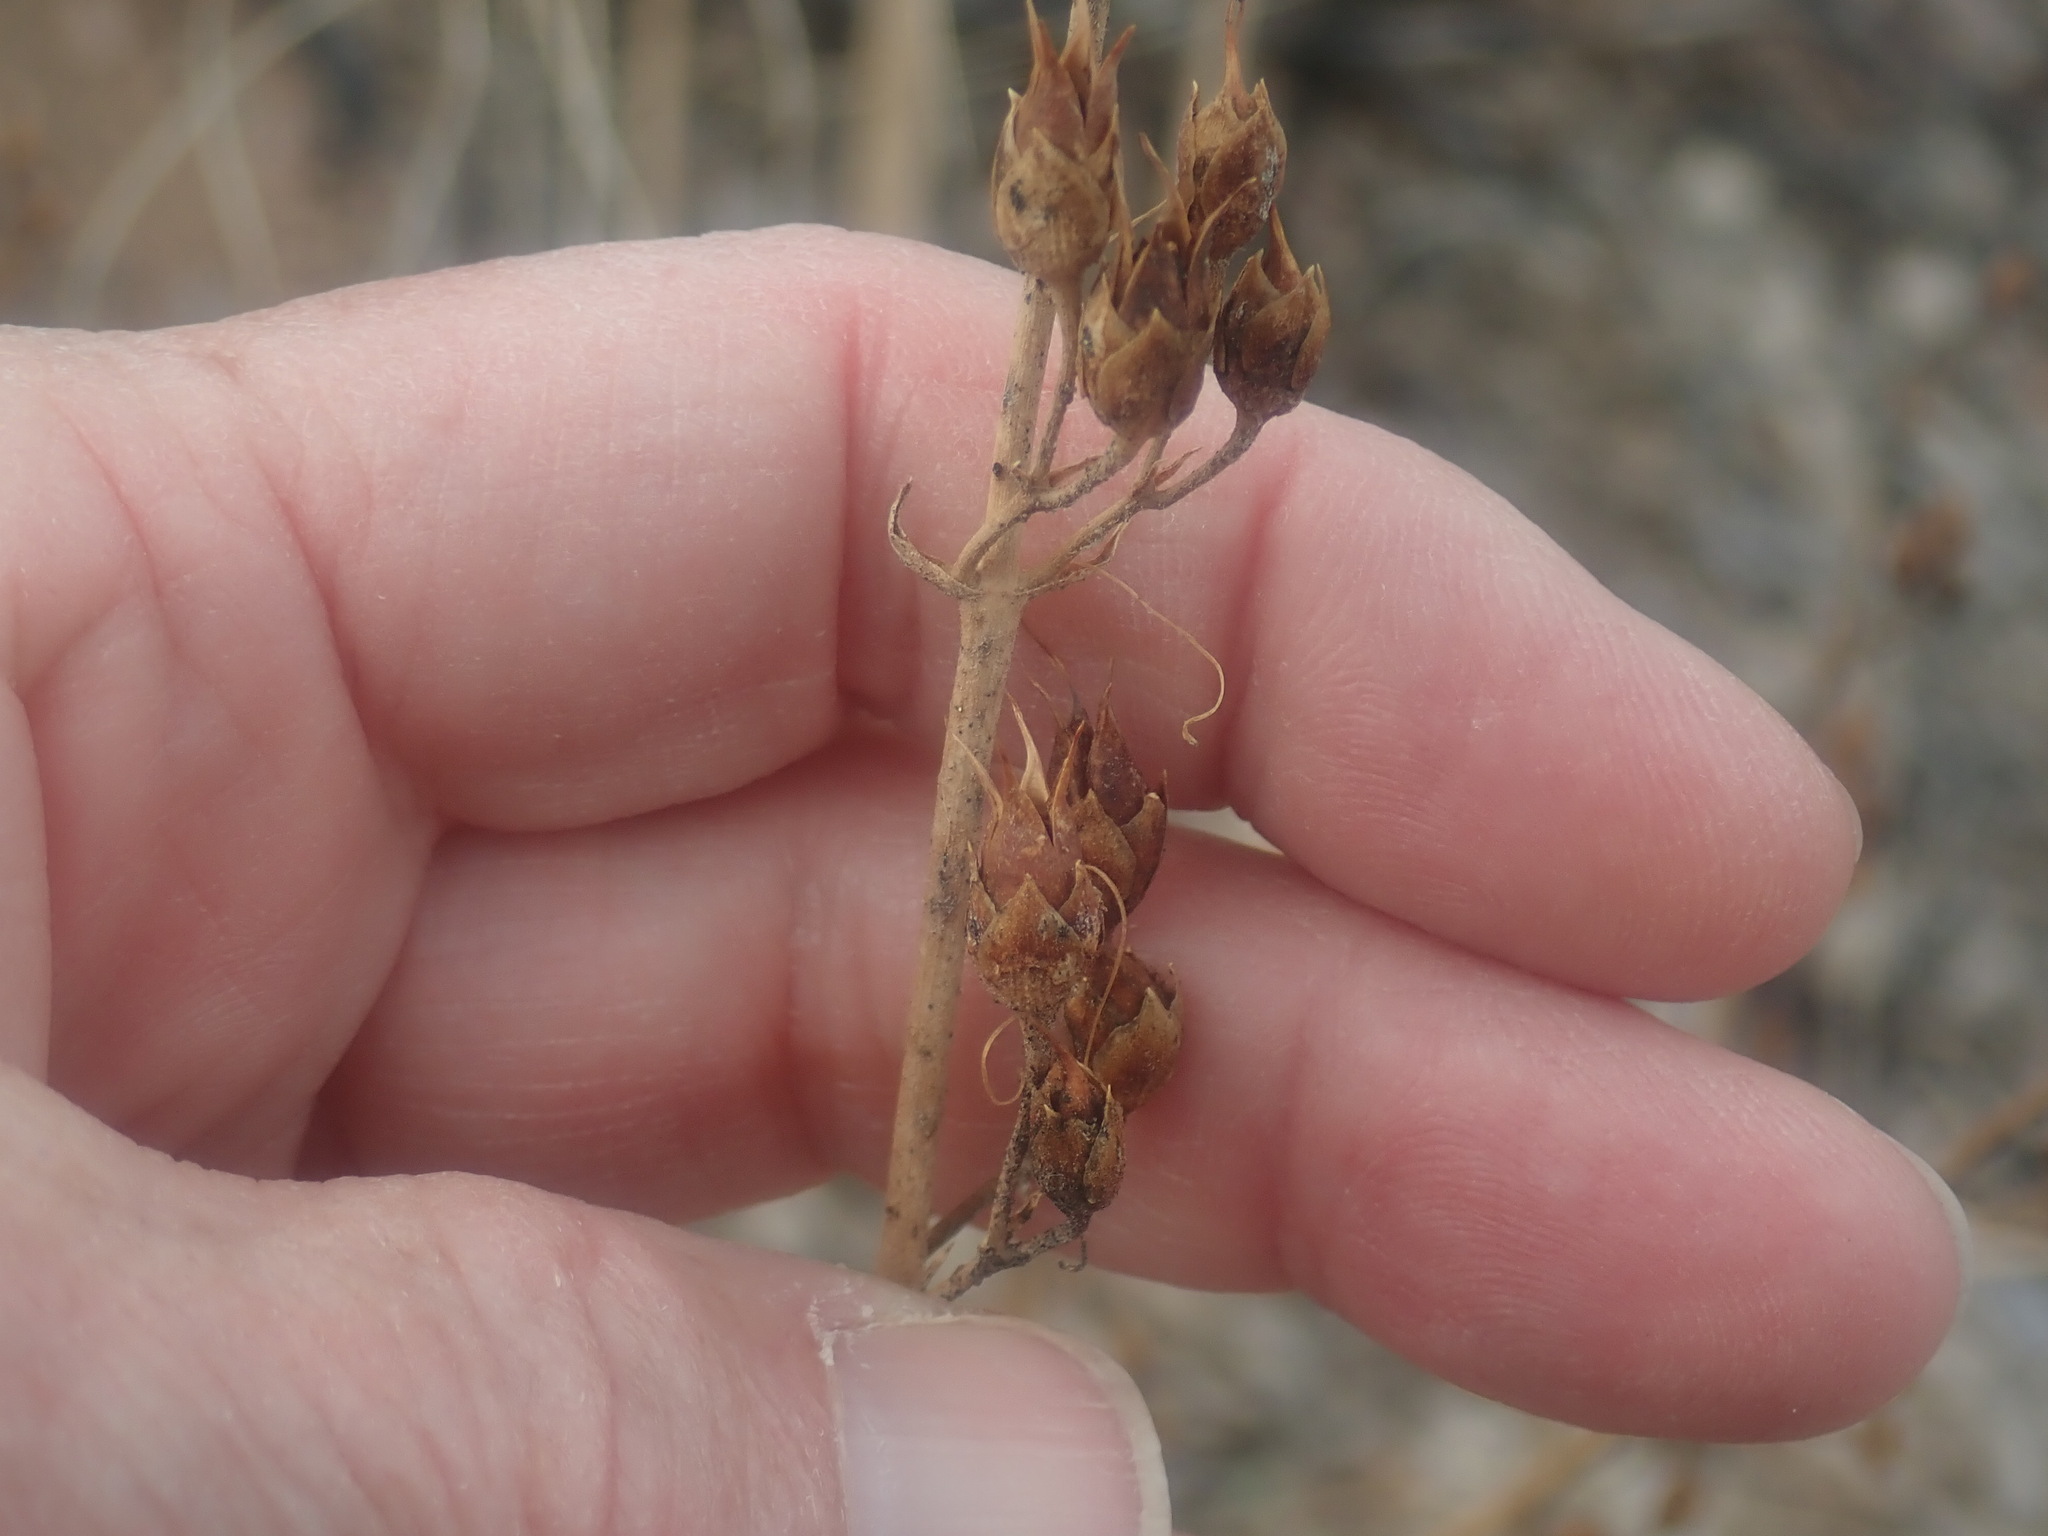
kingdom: Plantae
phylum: Tracheophyta
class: Magnoliopsida
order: Lamiales
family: Plantaginaceae
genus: Penstemon
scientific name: Penstemon palmeri
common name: Palmer penstemon
